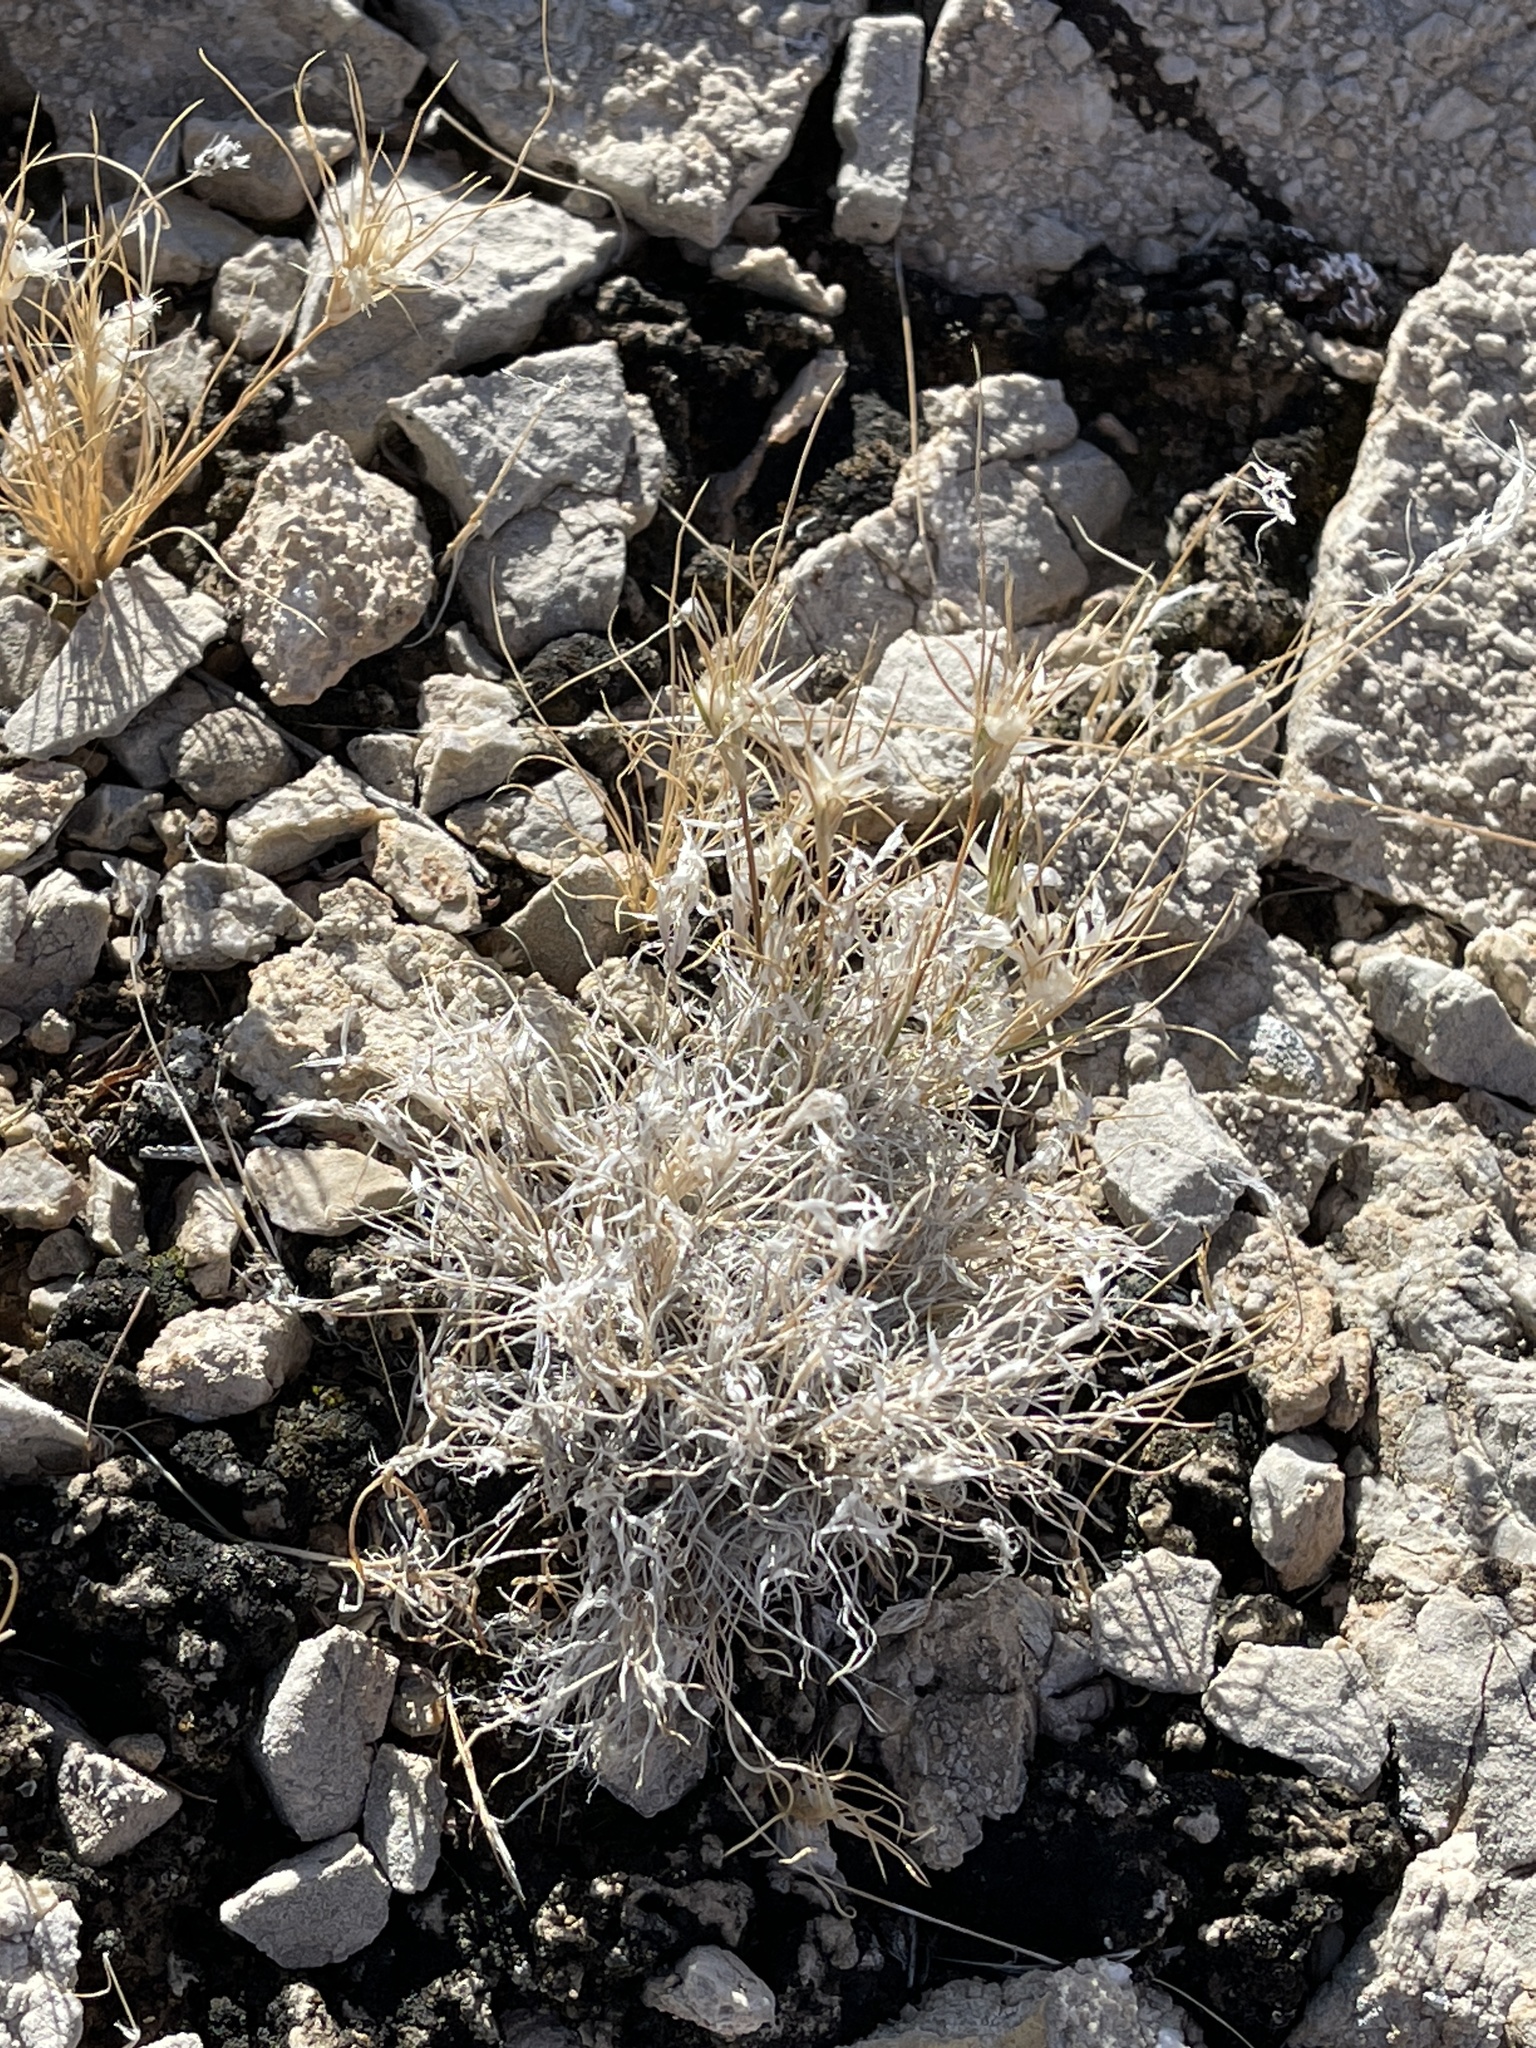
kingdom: Plantae
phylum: Tracheophyta
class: Liliopsida
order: Poales
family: Poaceae
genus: Dasyochloa
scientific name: Dasyochloa pulchella
